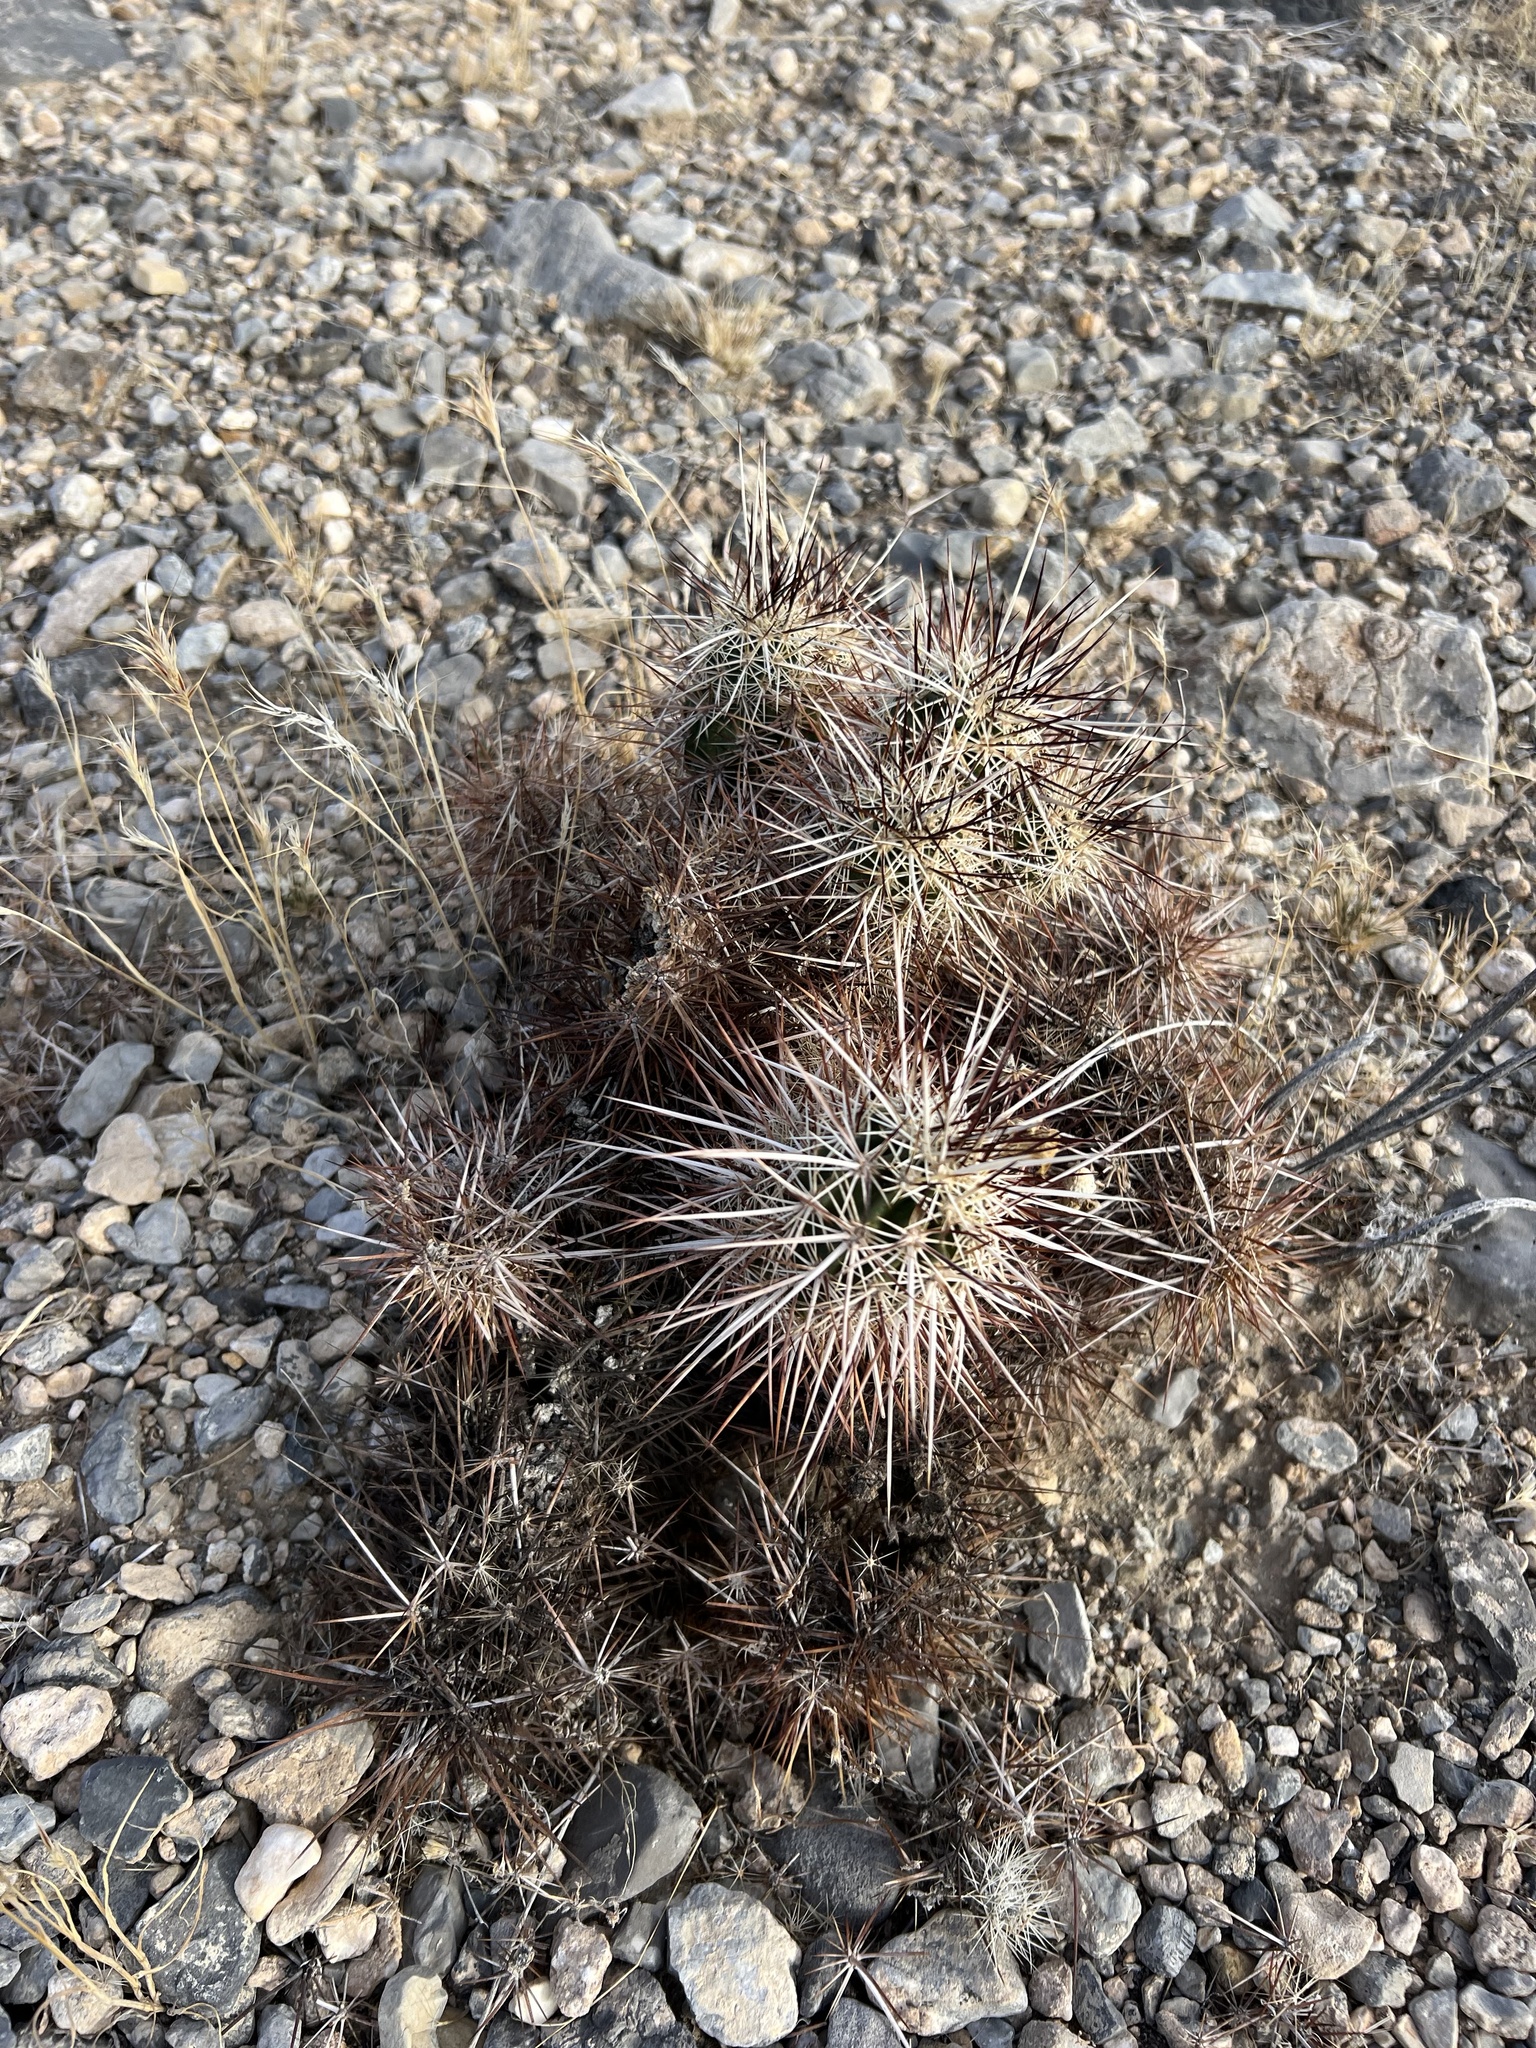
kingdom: Plantae
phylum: Tracheophyta
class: Magnoliopsida
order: Caryophyllales
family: Cactaceae
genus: Echinocereus
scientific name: Echinocereus engelmannii
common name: Engelmann's hedgehog cactus
